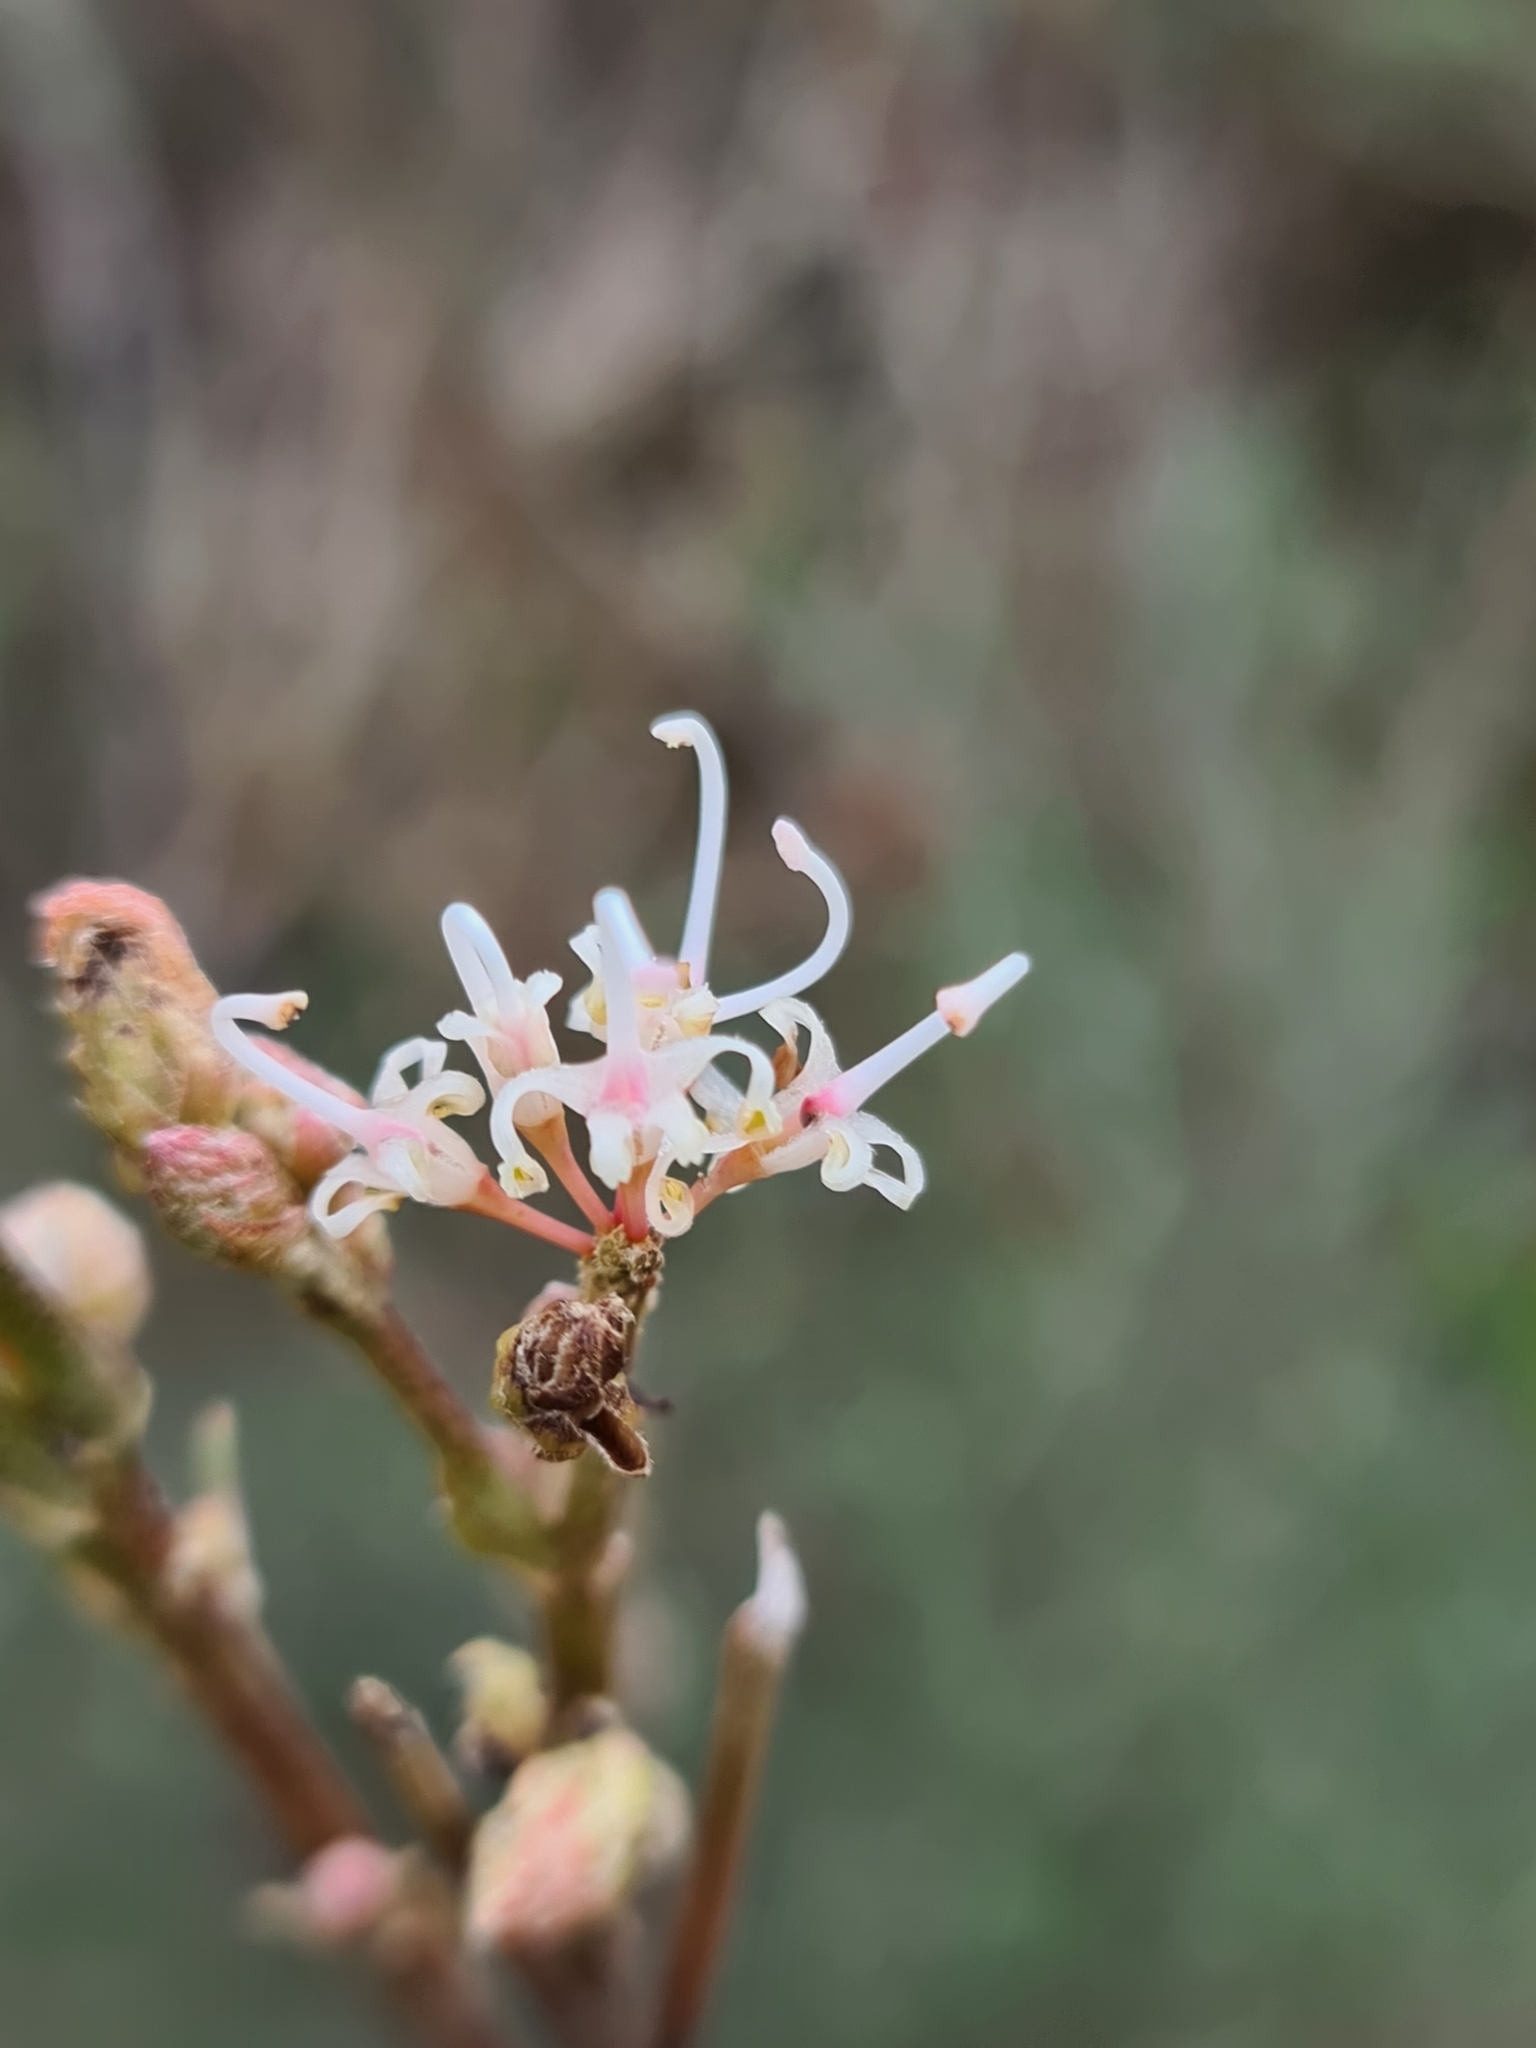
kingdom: Plantae
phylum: Tracheophyta
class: Magnoliopsida
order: Proteales
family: Proteaceae
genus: Grevillea
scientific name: Grevillea endlicheriana
